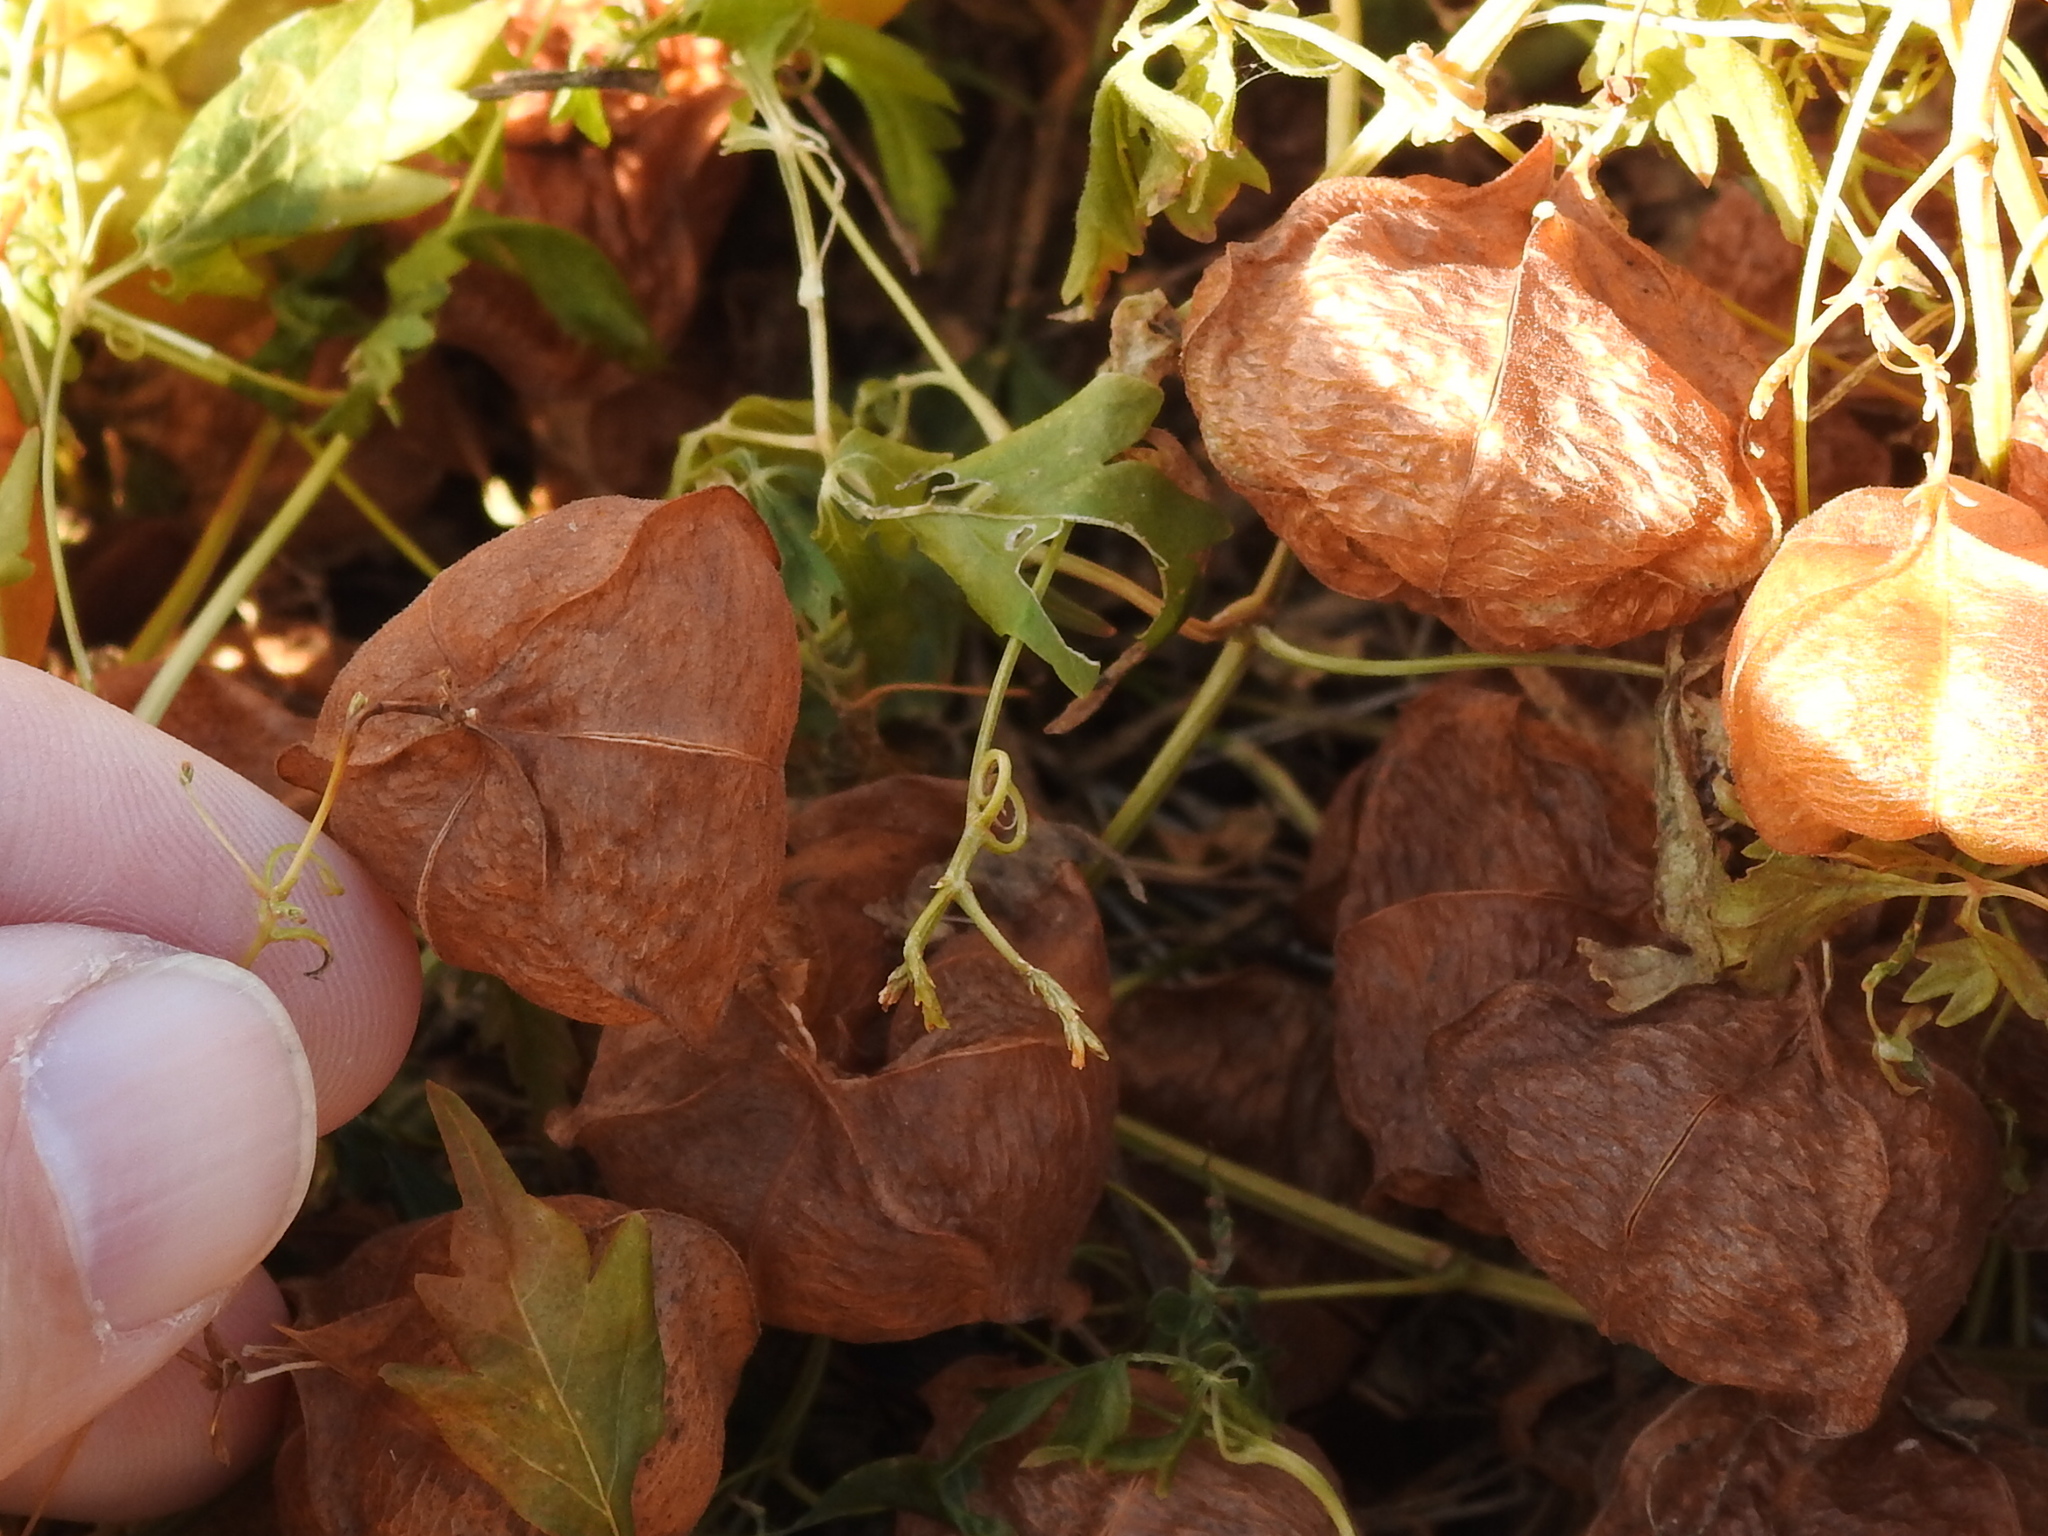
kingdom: Plantae
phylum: Tracheophyta
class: Magnoliopsida
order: Sapindales
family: Sapindaceae
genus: Cardiospermum
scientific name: Cardiospermum halicacabum
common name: Balloon vine
